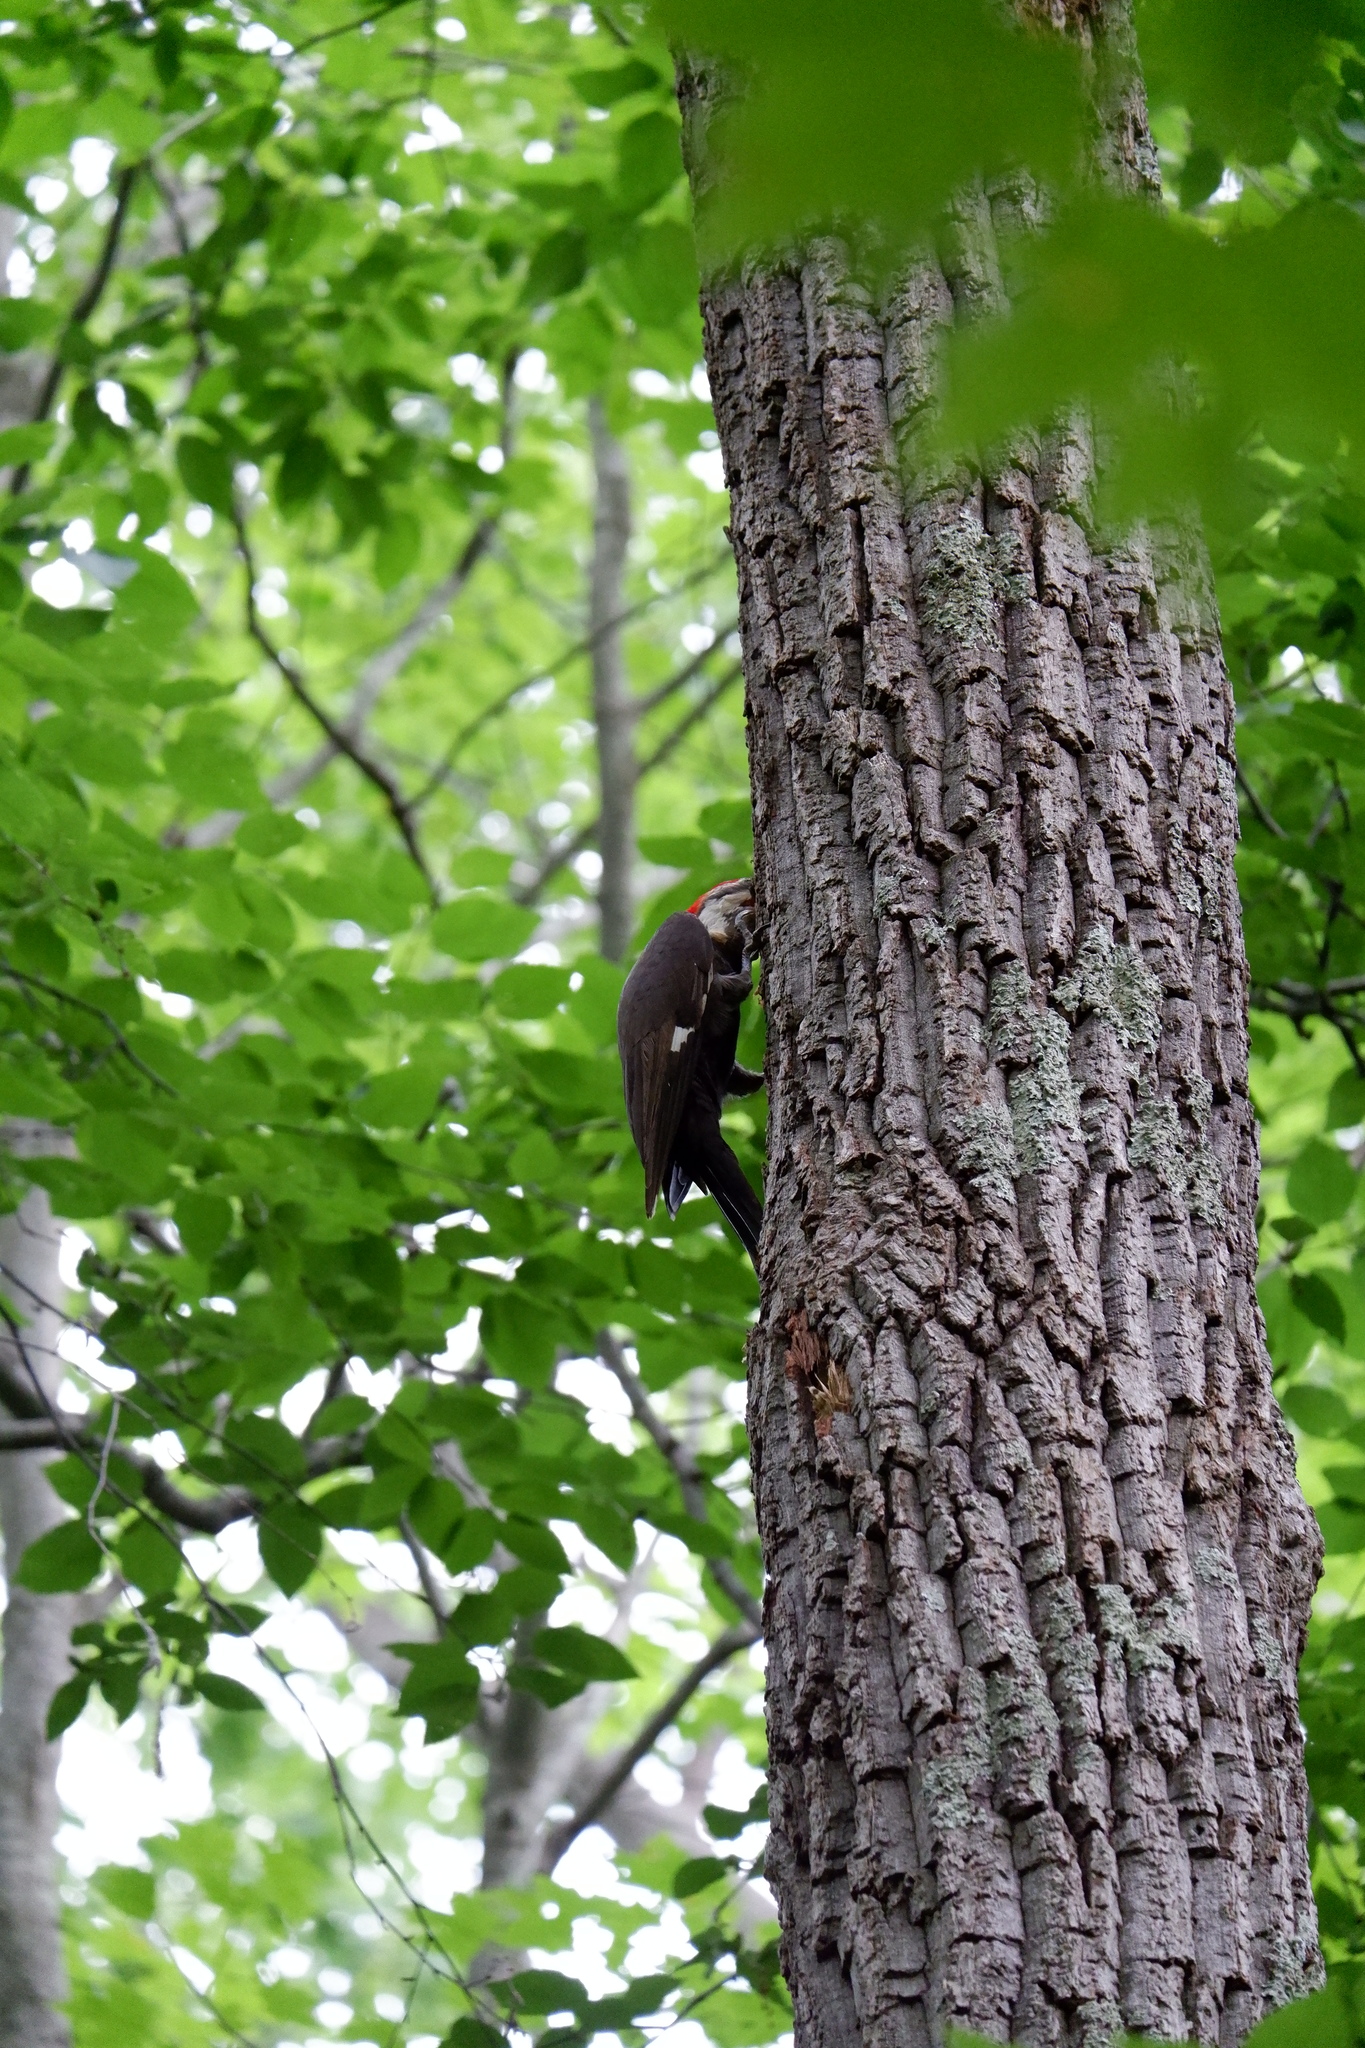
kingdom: Animalia
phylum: Chordata
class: Aves
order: Piciformes
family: Picidae
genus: Dryocopus
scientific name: Dryocopus pileatus
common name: Pileated woodpecker
